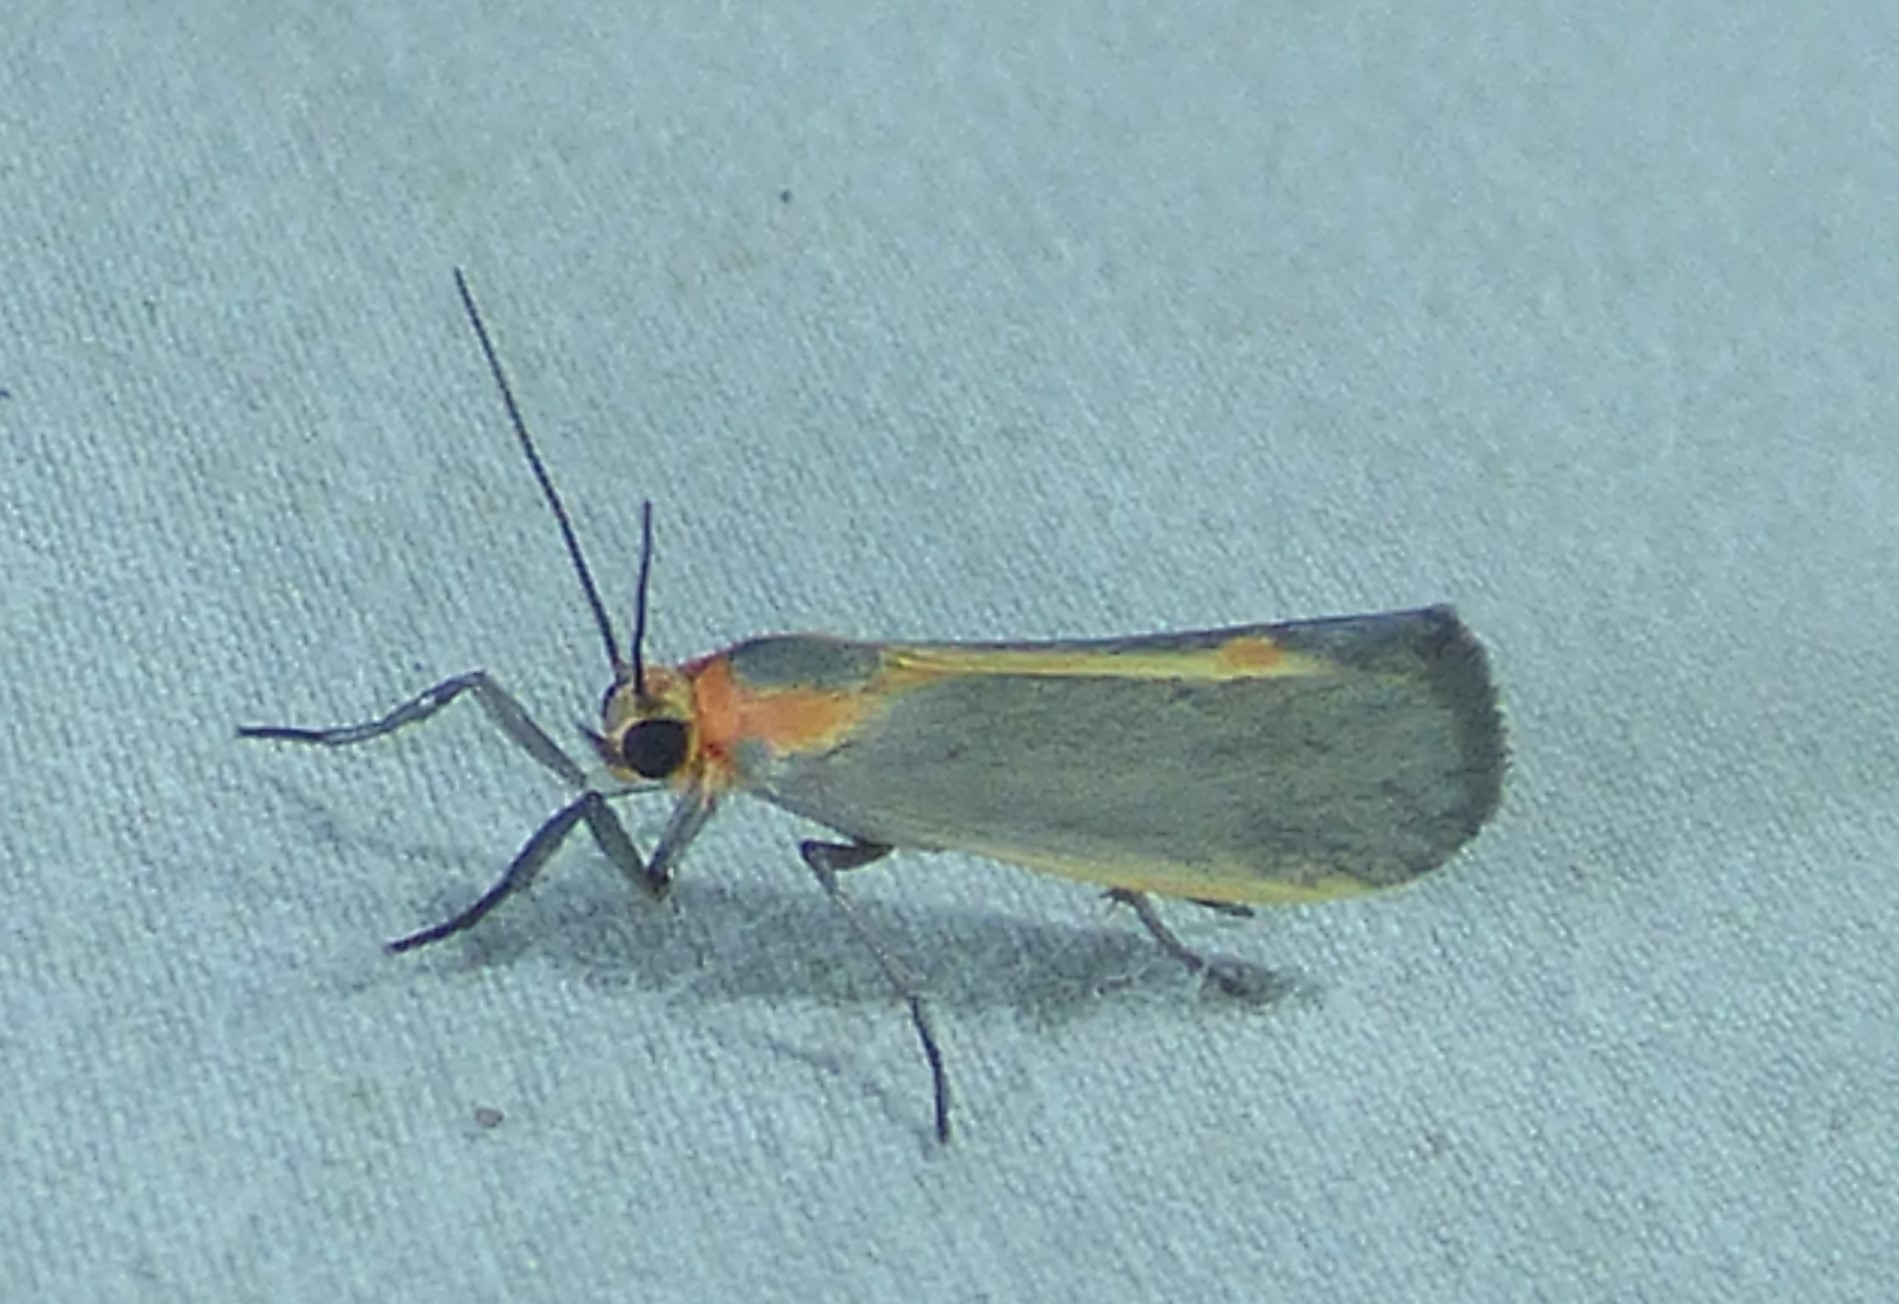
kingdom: Animalia
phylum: Arthropoda
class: Insecta
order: Lepidoptera
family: Erebidae
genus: Cisthene
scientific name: Cisthene plumbea
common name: Lead colored lichen moth
